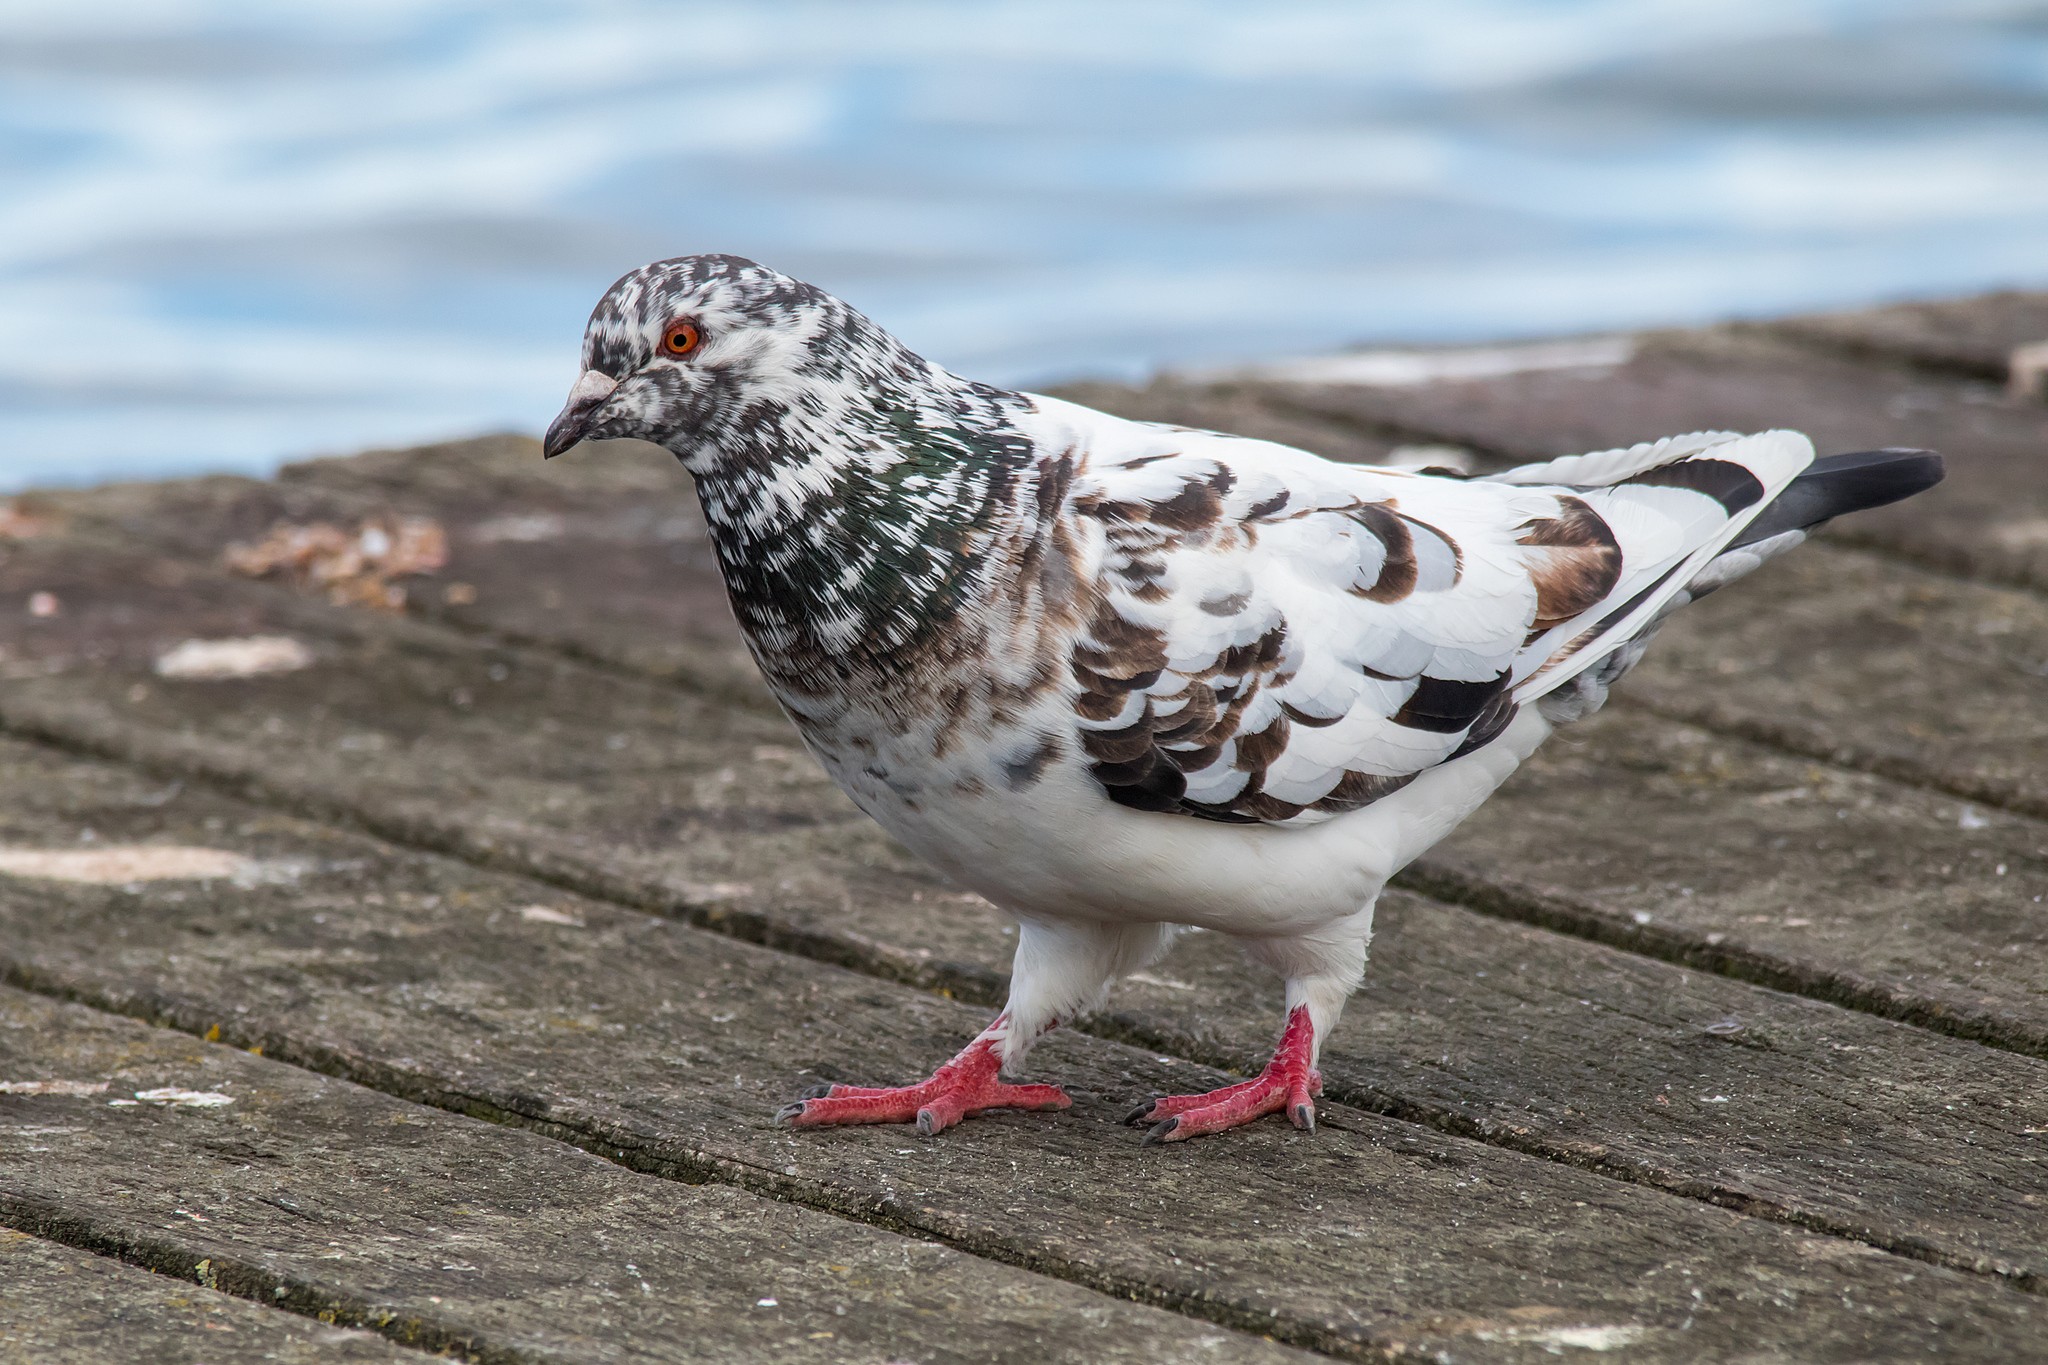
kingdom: Animalia
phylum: Chordata
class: Aves
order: Columbiformes
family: Columbidae
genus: Columba
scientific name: Columba livia
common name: Rock pigeon
